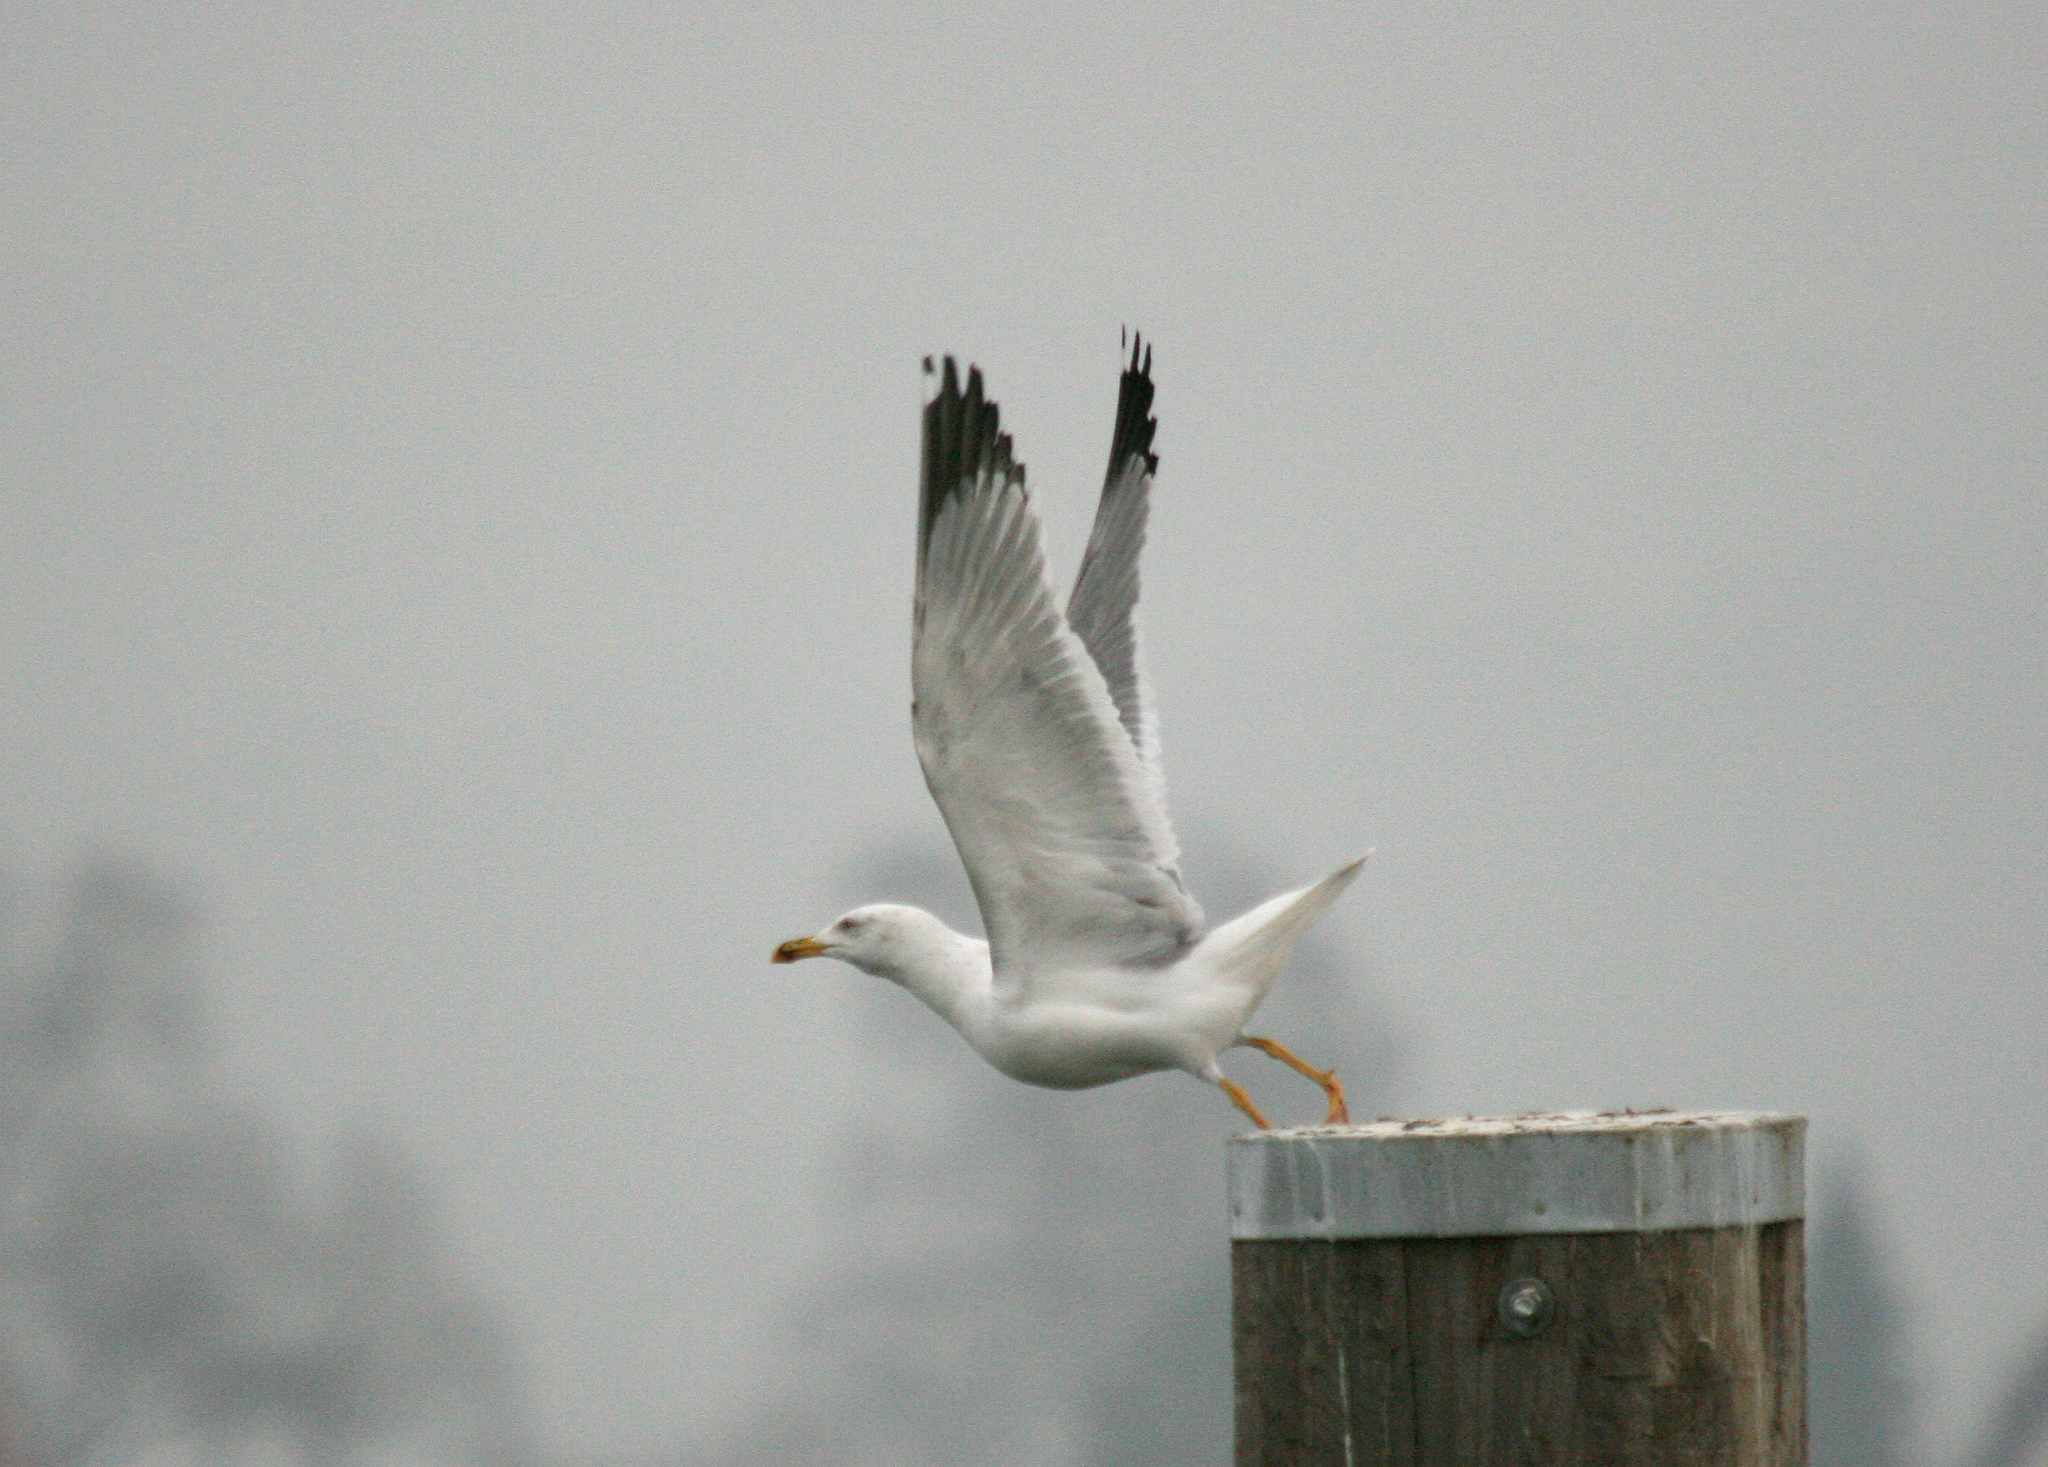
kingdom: Animalia
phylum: Chordata
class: Aves
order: Charadriiformes
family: Laridae
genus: Larus
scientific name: Larus michahellis
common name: Yellow-legged gull
